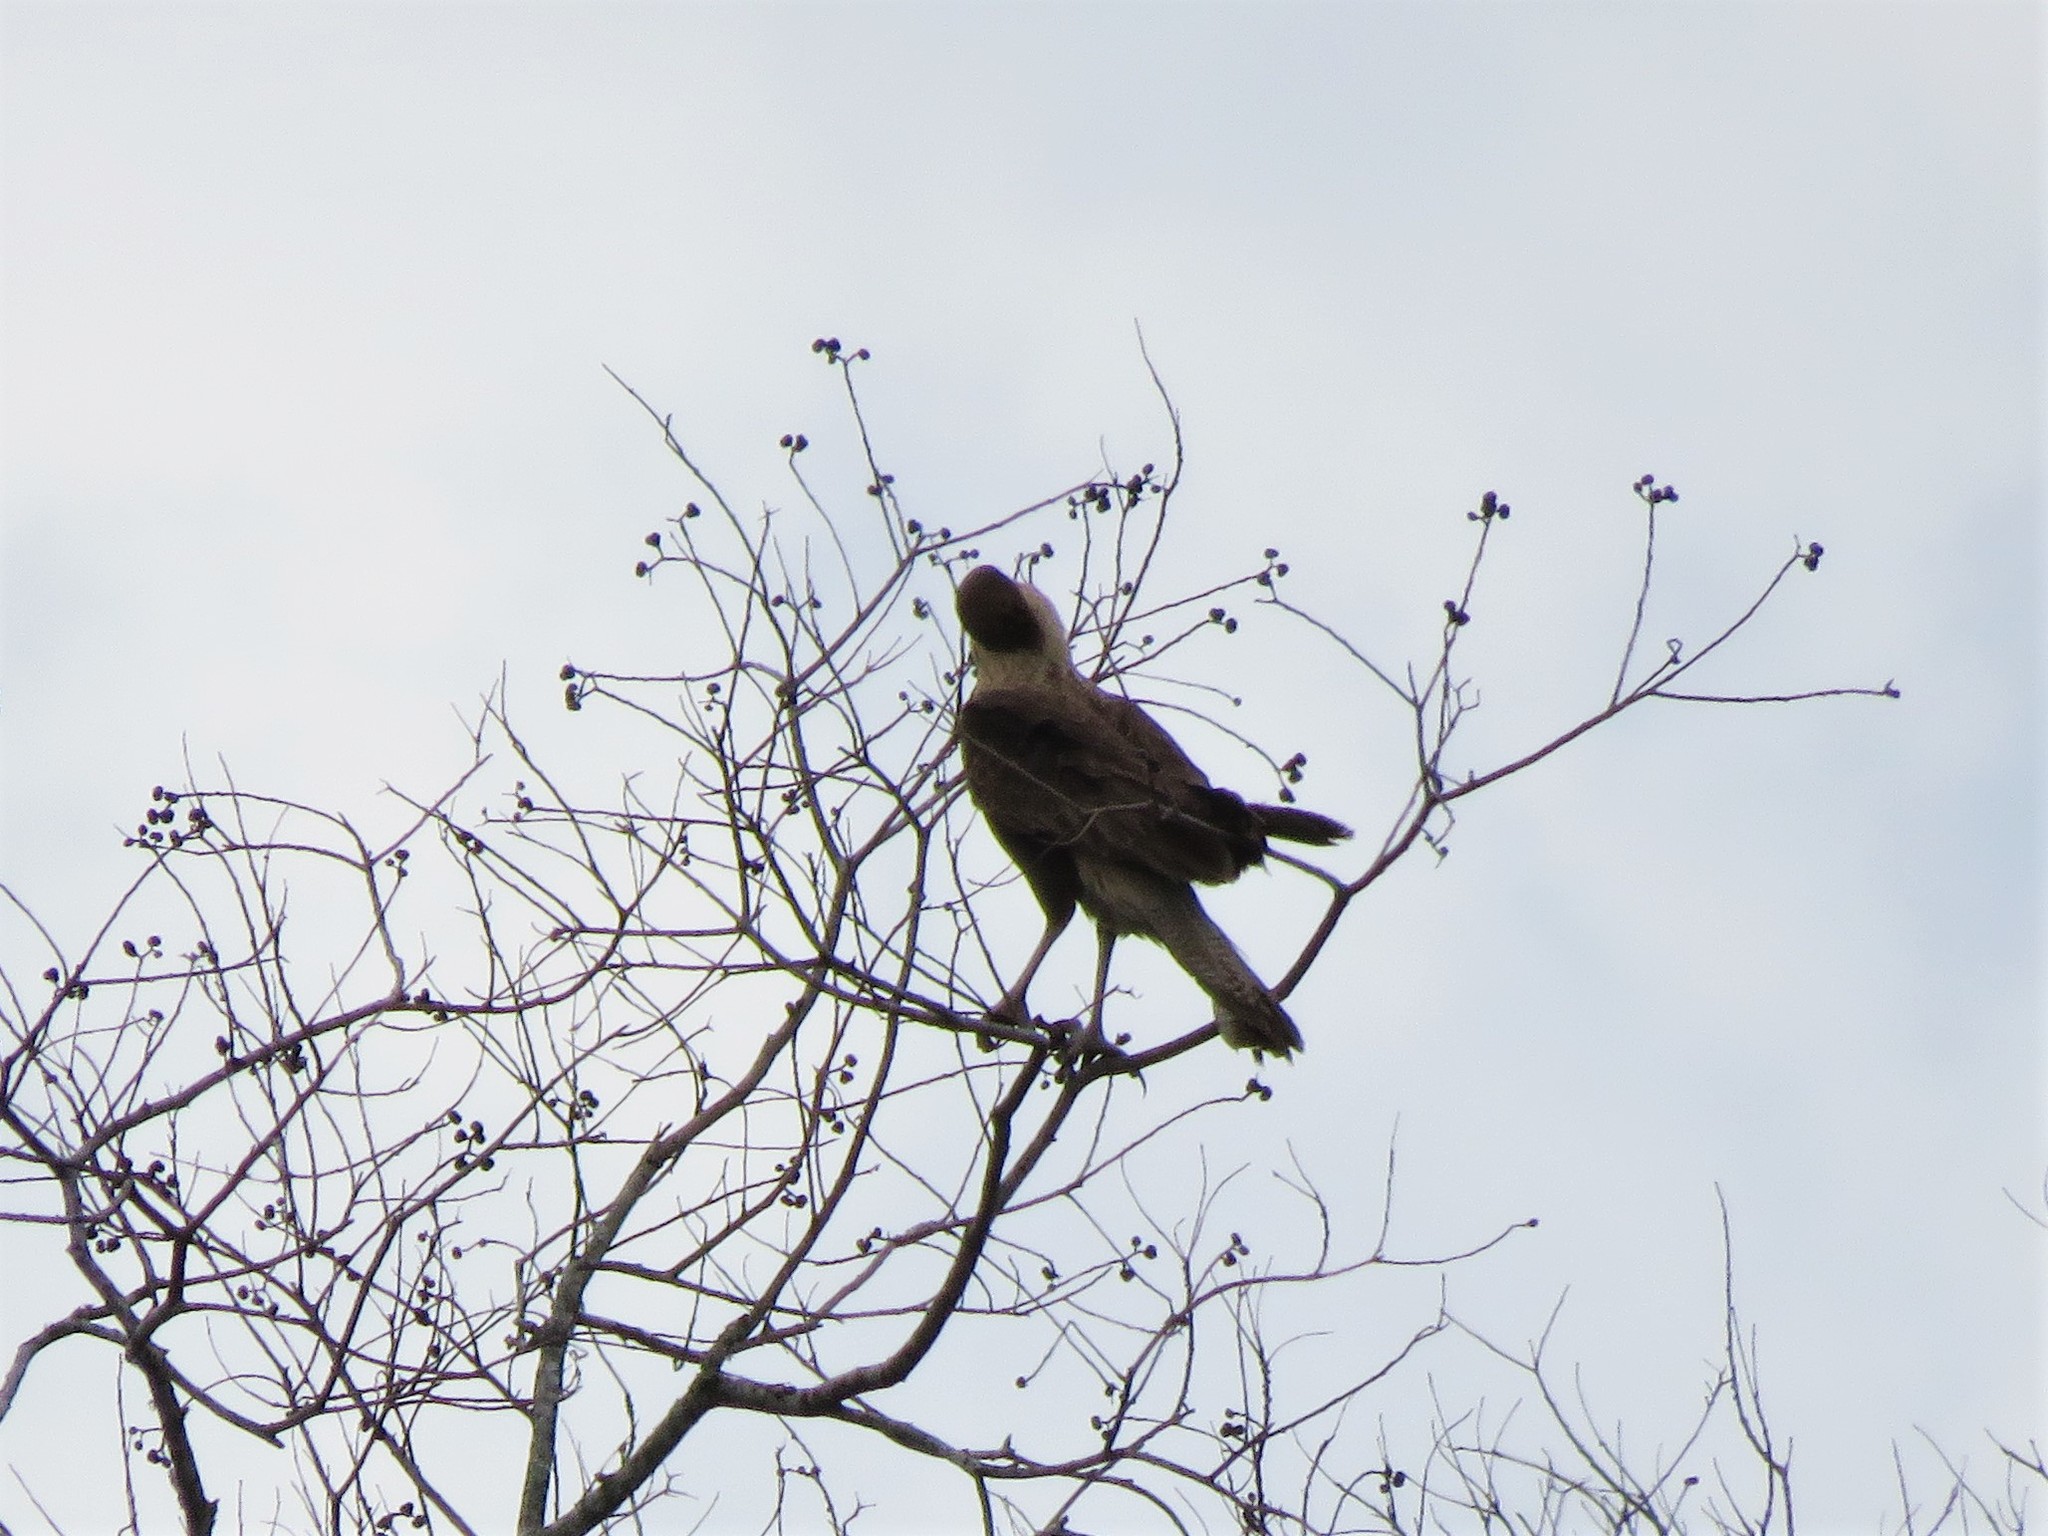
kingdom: Animalia
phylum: Chordata
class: Aves
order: Falconiformes
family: Falconidae
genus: Caracara
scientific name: Caracara plancus
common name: Southern caracara
